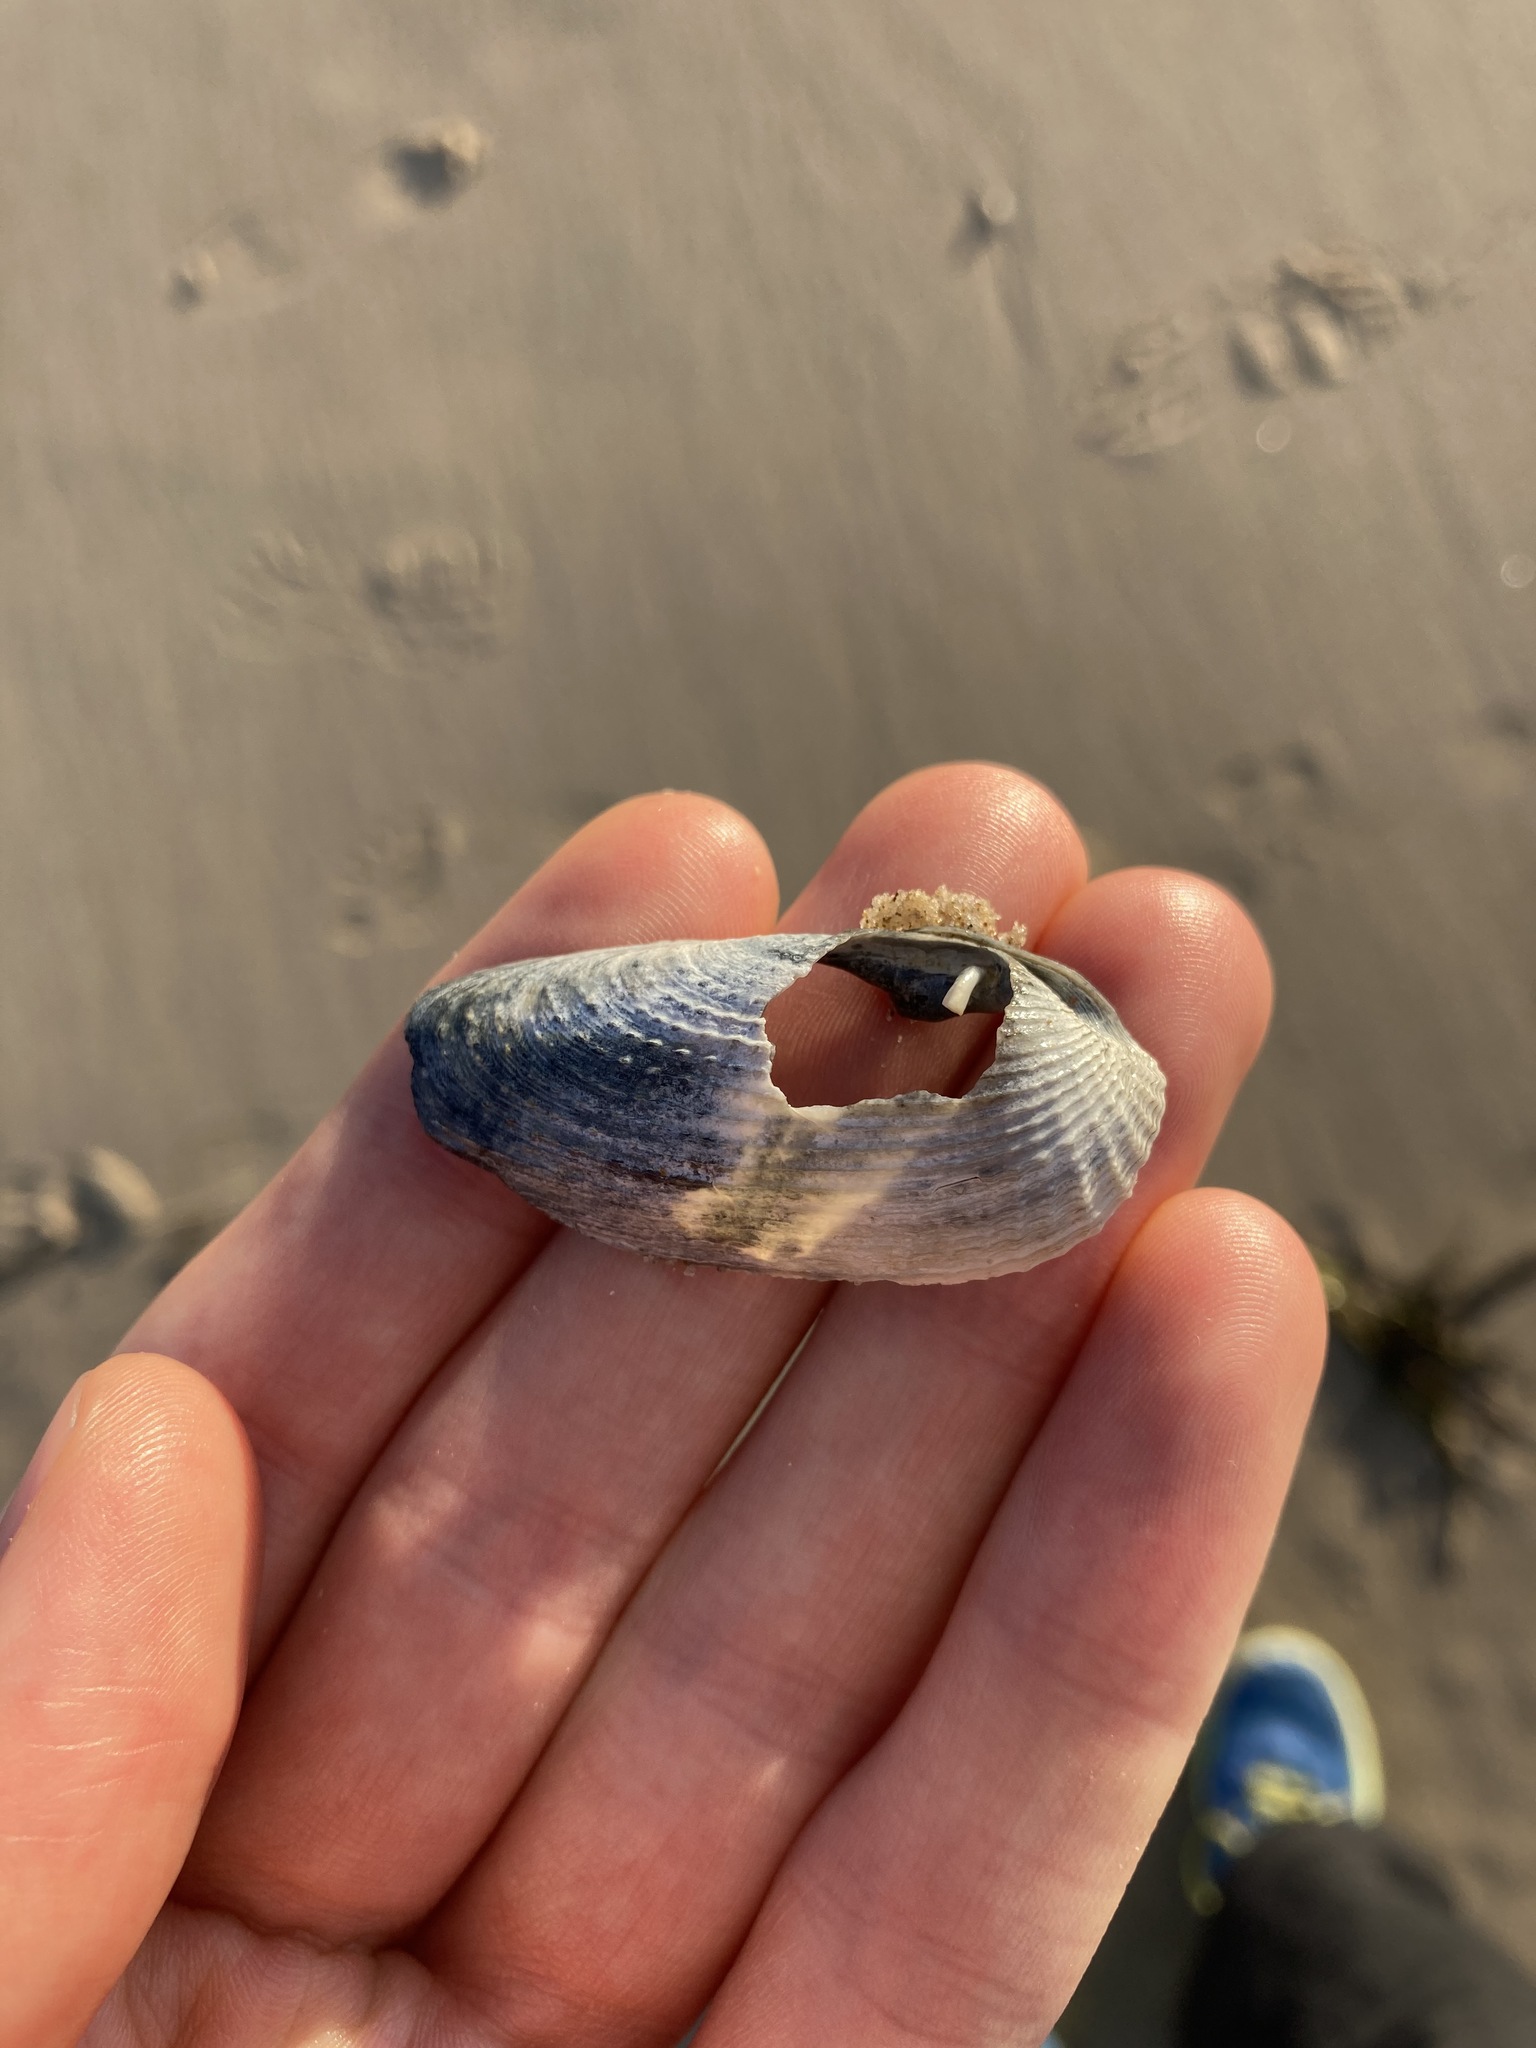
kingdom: Animalia
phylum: Mollusca
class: Bivalvia
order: Myida
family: Pholadidae
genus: Barnea
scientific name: Barnea australasiae
